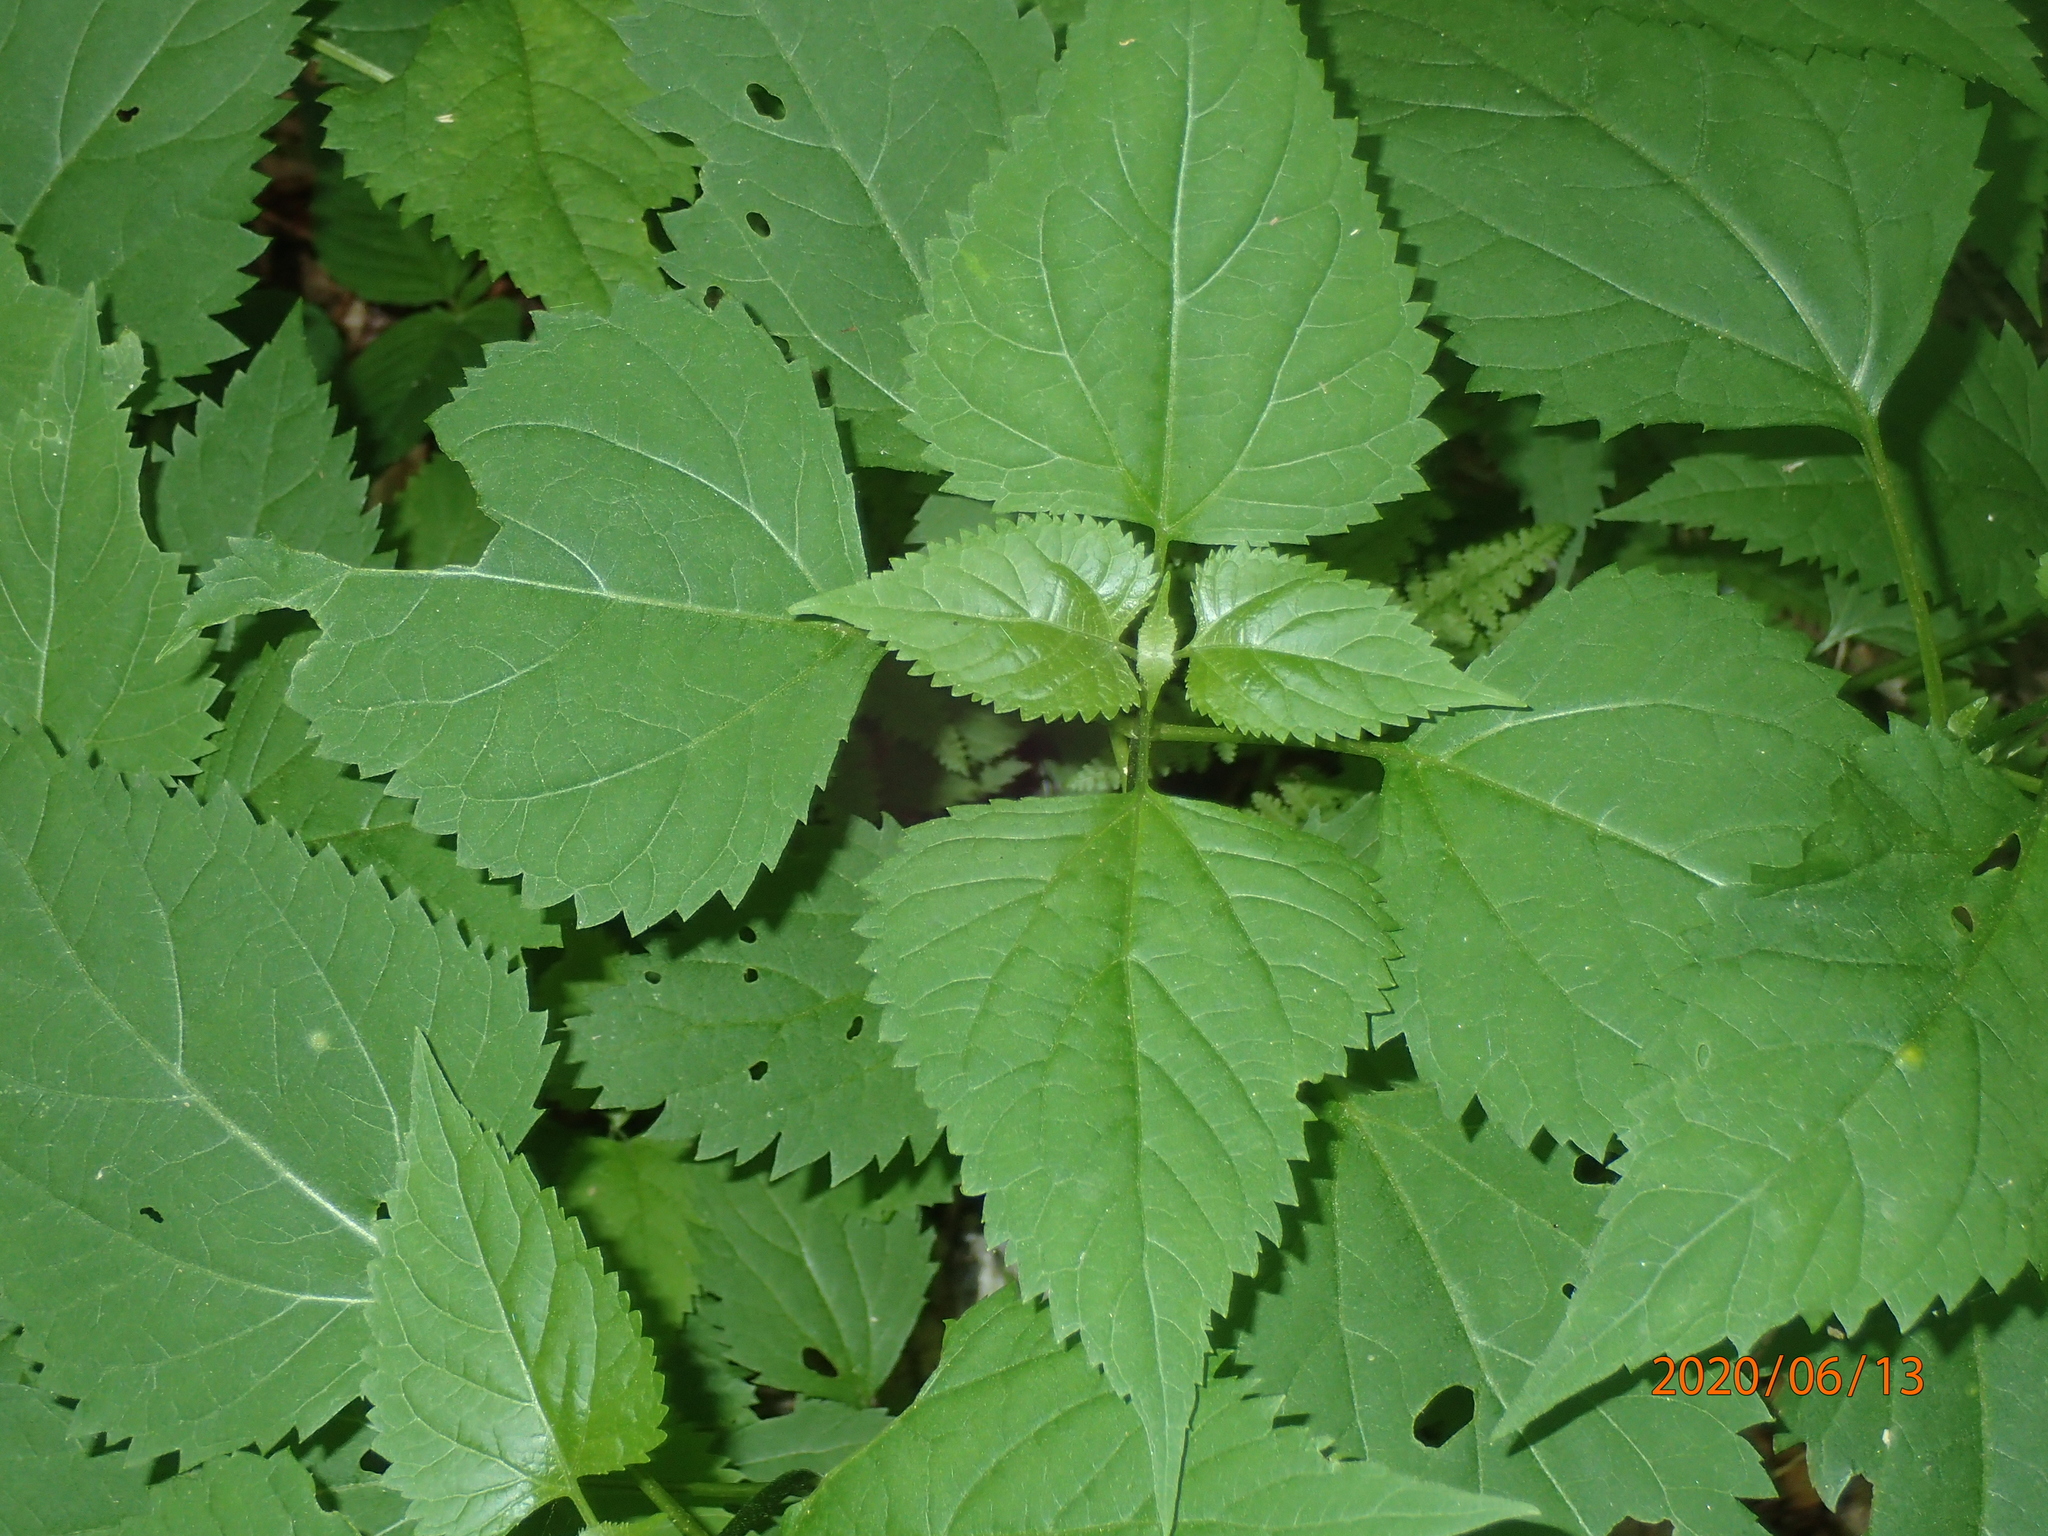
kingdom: Plantae
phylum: Tracheophyta
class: Magnoliopsida
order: Asterales
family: Asteraceae
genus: Ageratina
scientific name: Ageratina altissima
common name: White snakeroot
